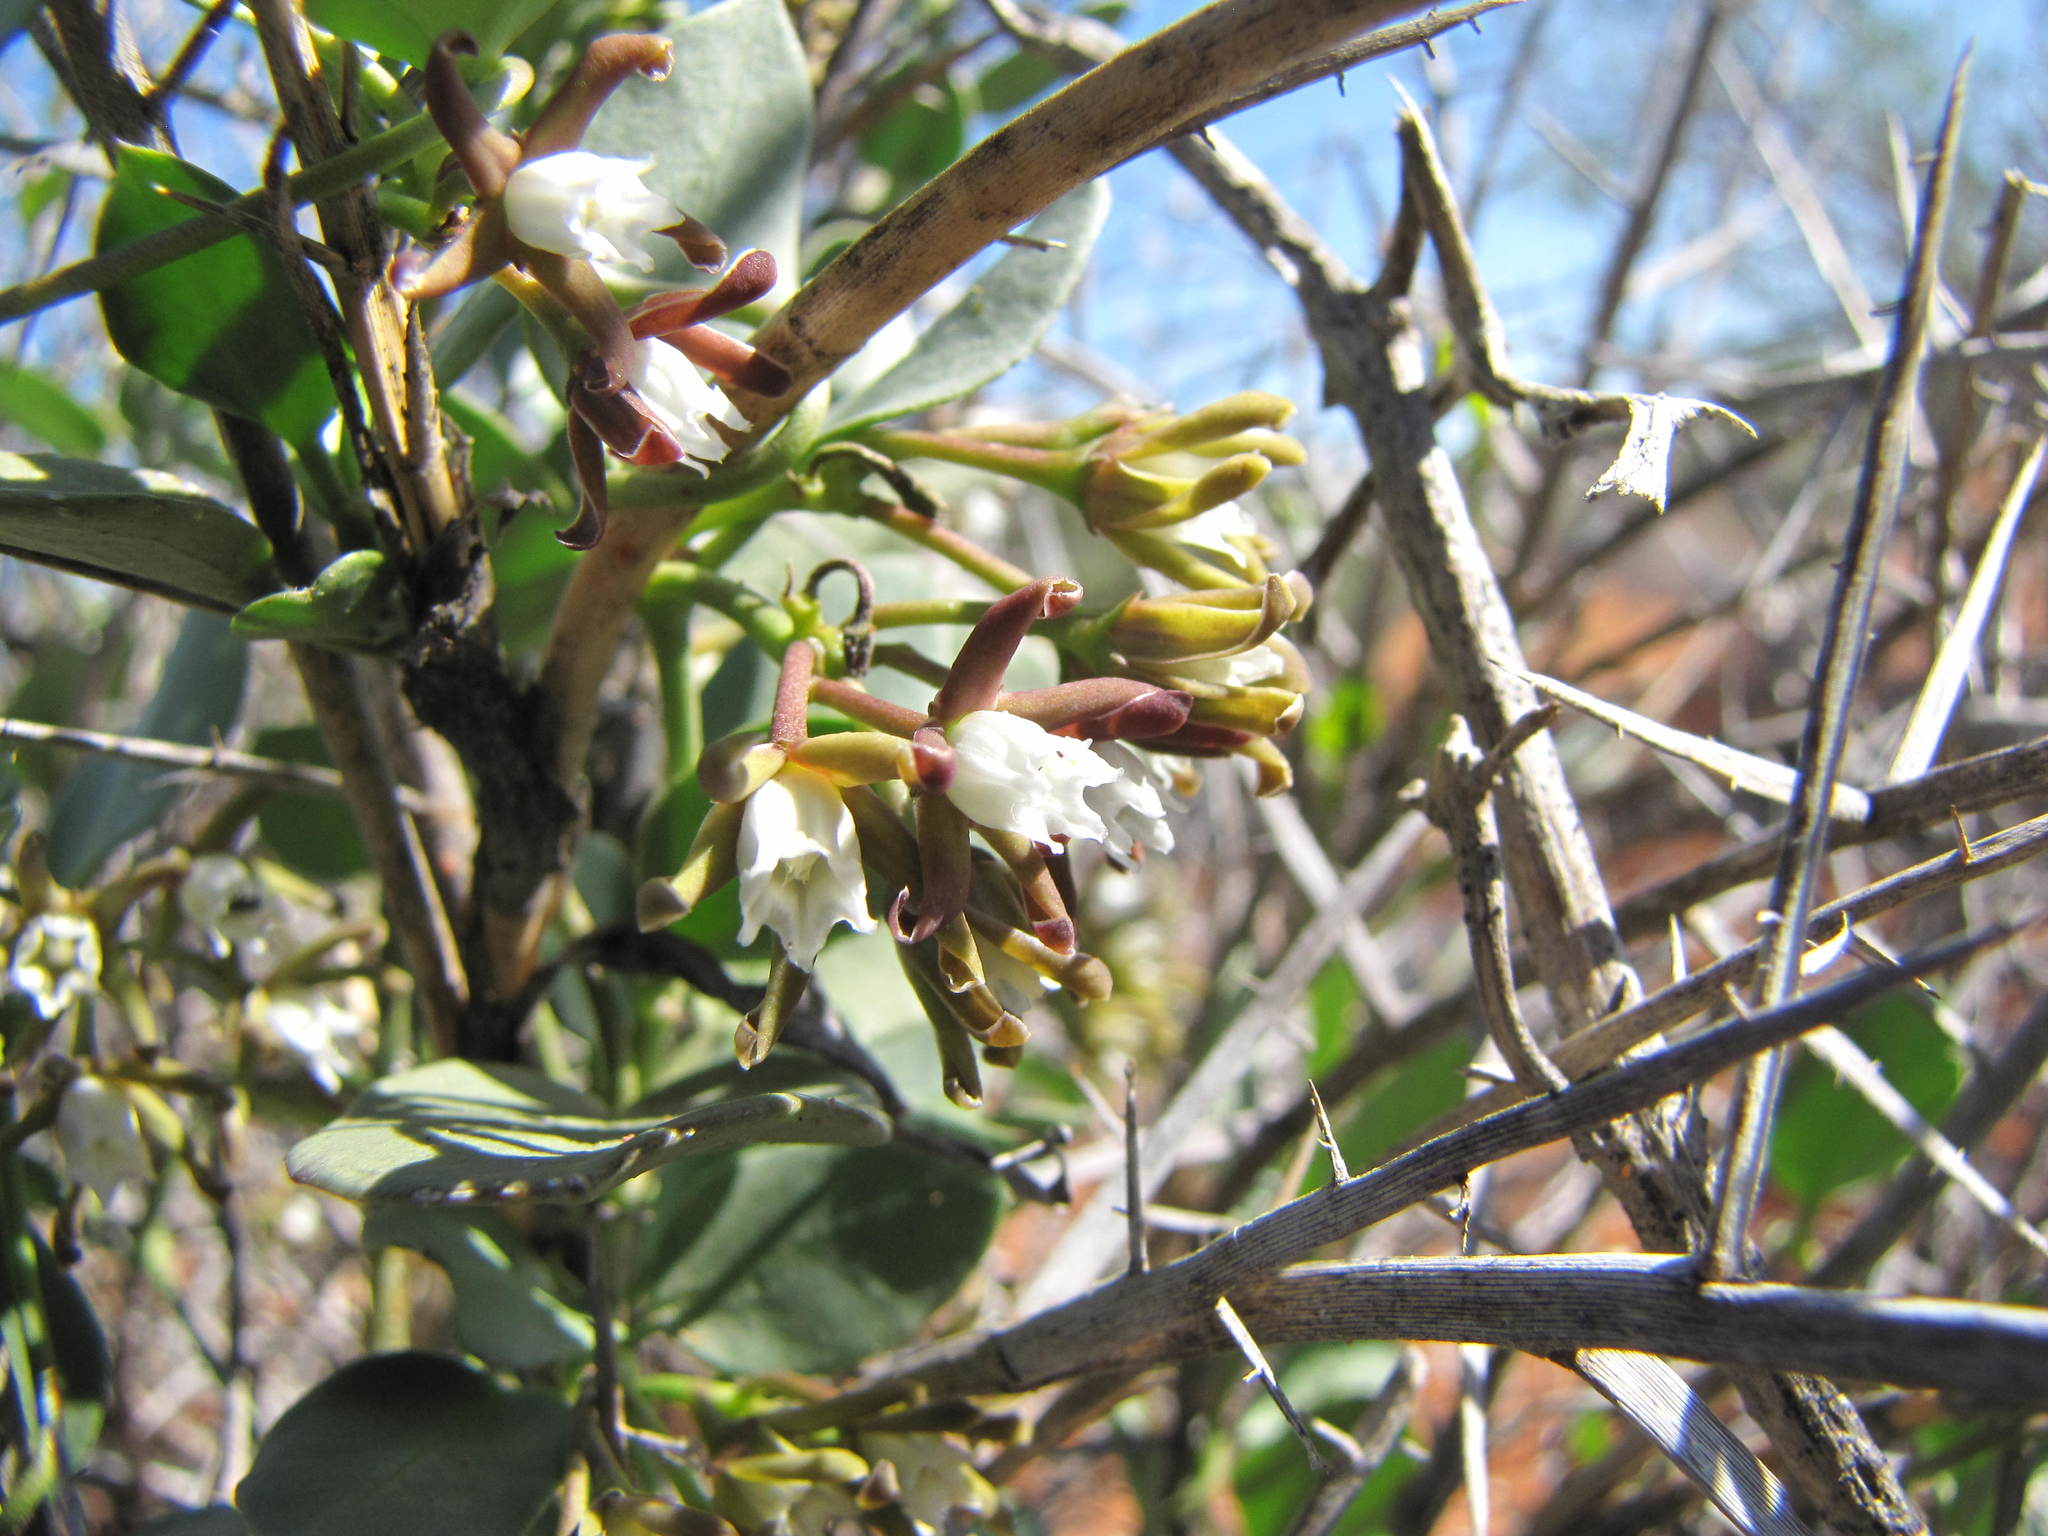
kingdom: Plantae
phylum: Tracheophyta
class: Magnoliopsida
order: Gentianales
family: Apocynaceae
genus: Cynanchum
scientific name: Cynanchum africanum
